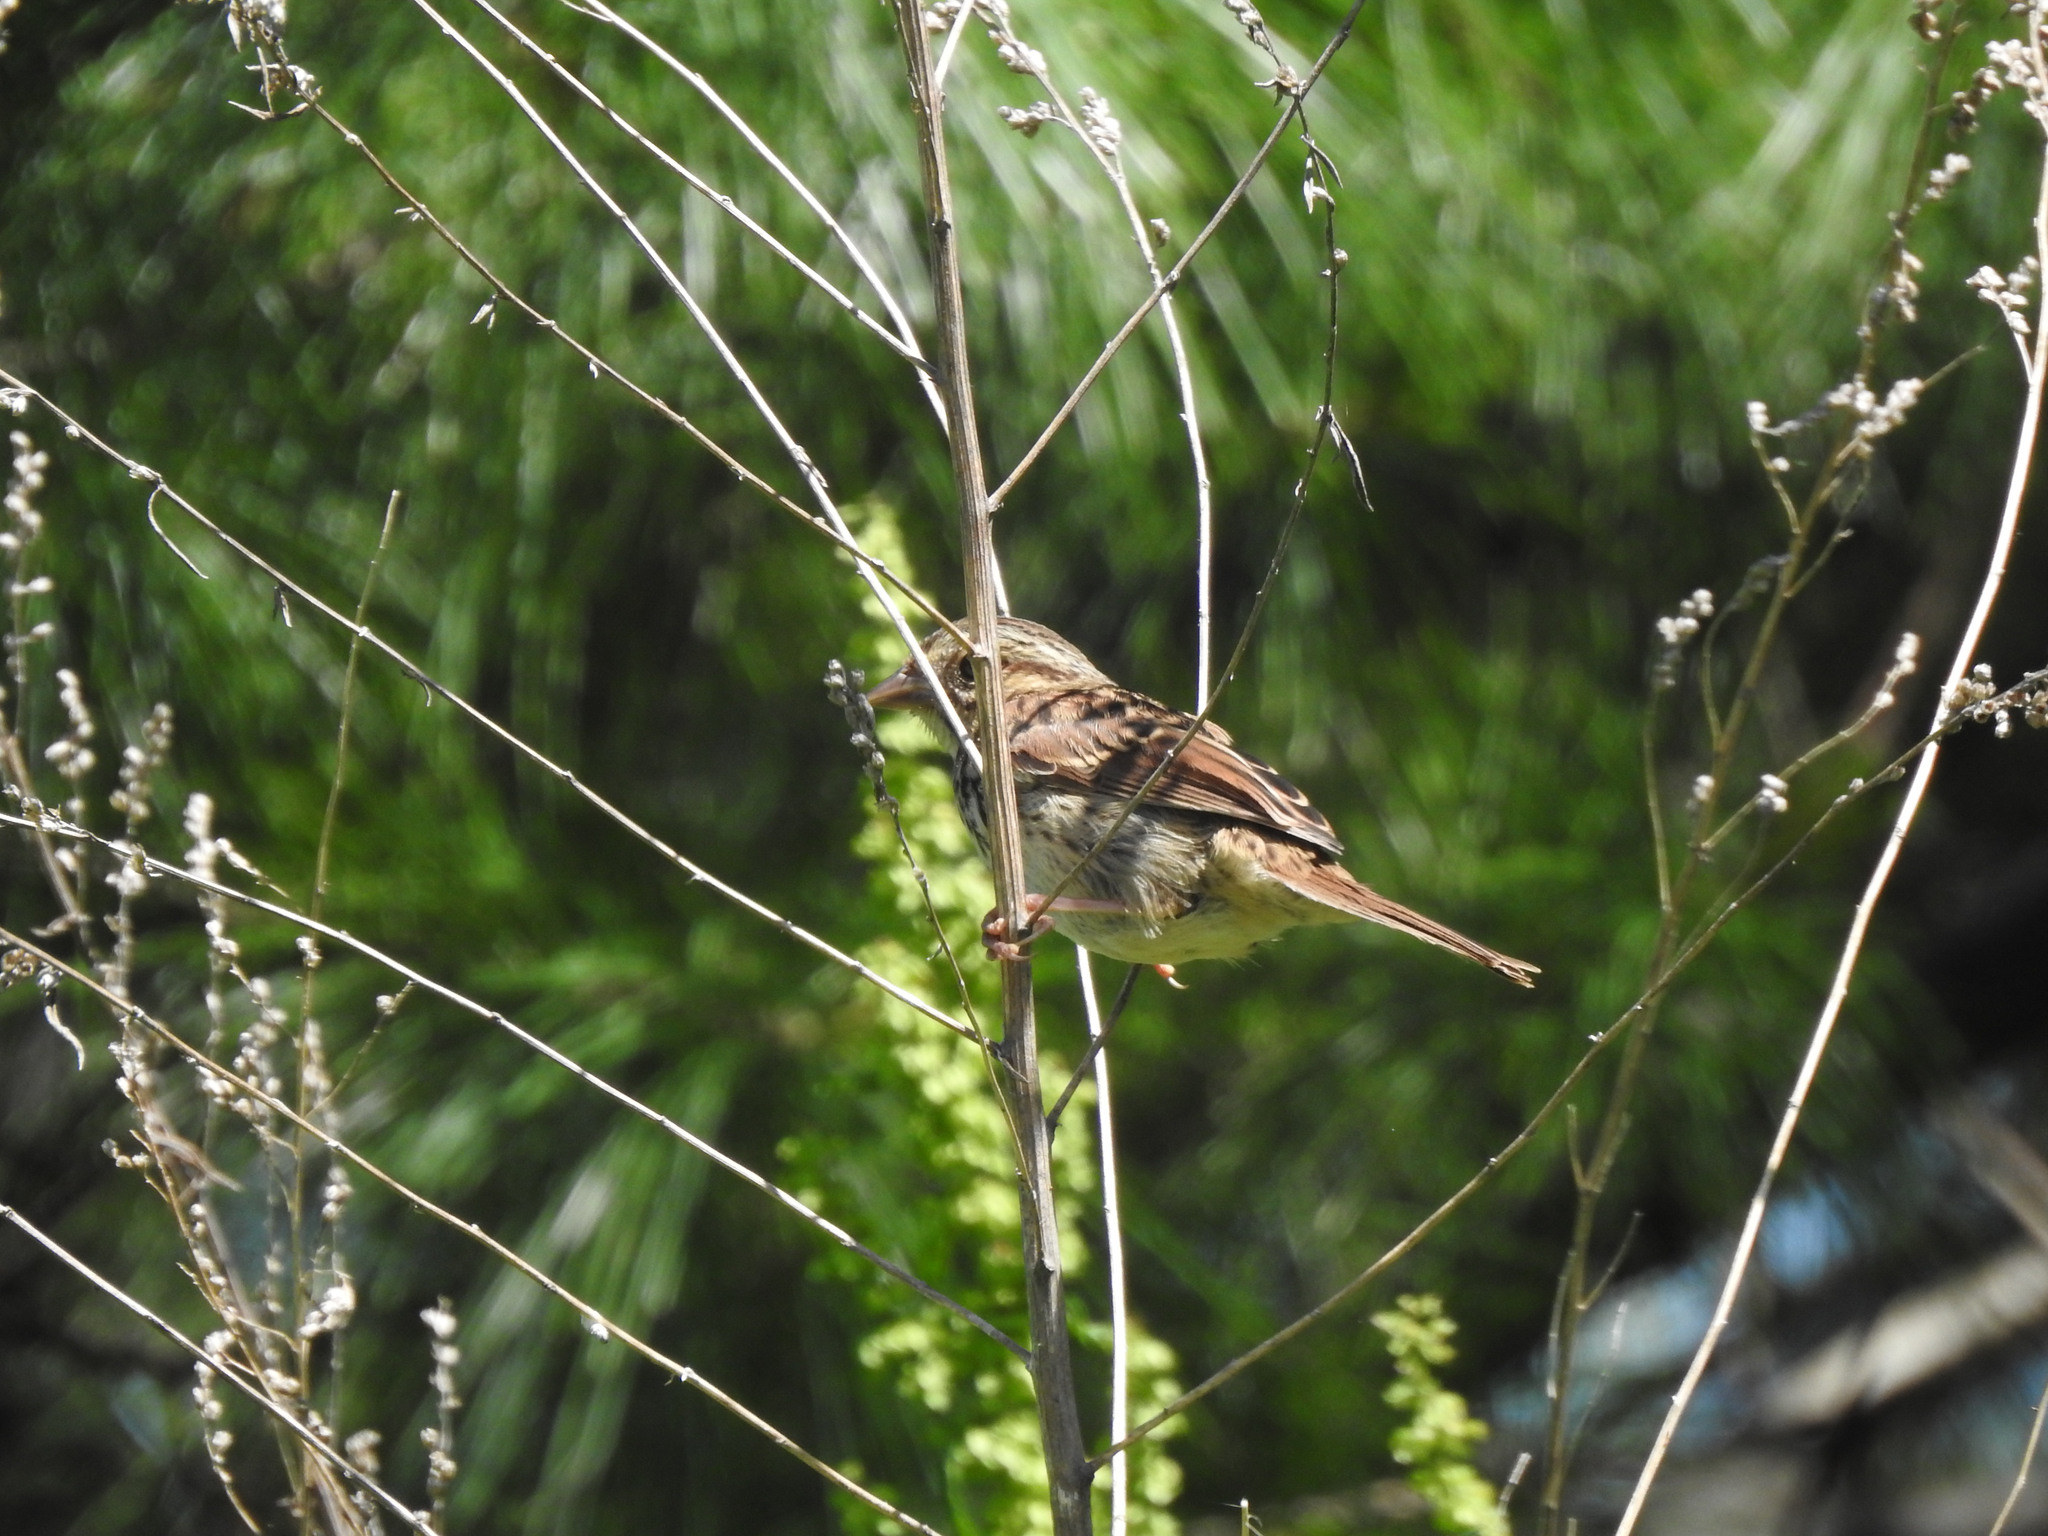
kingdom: Animalia
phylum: Chordata
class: Aves
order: Passeriformes
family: Passerellidae
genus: Melospiza
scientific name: Melospiza melodia
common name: Song sparrow
